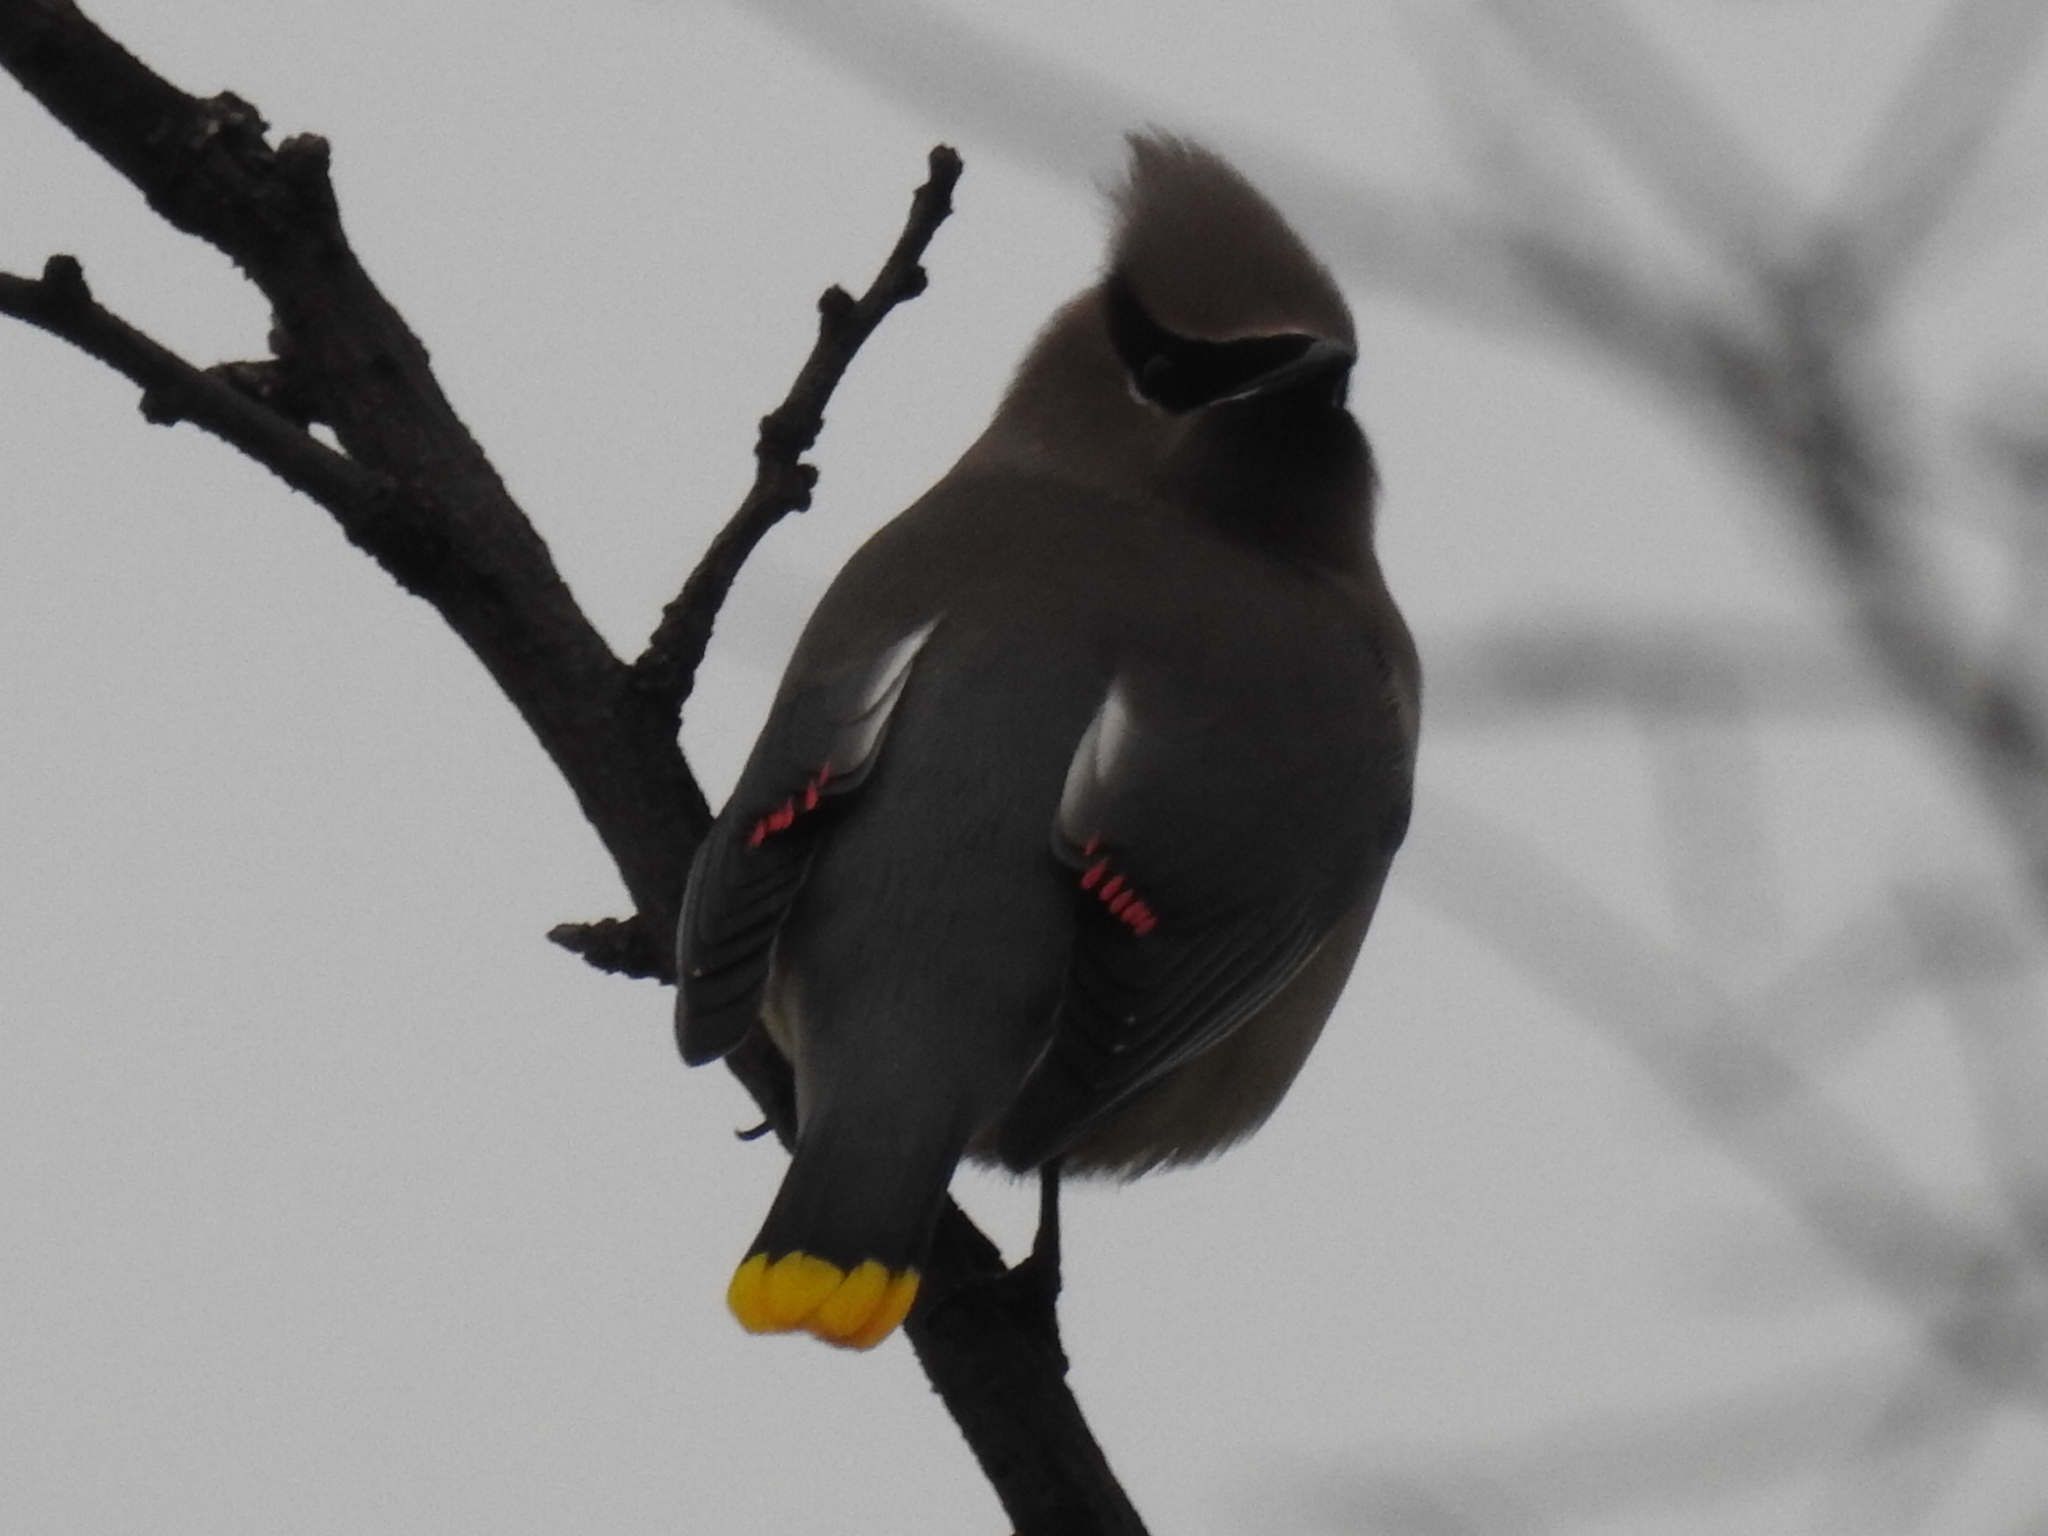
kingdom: Animalia
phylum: Chordata
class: Aves
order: Passeriformes
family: Bombycillidae
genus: Bombycilla
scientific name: Bombycilla cedrorum
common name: Cedar waxwing
